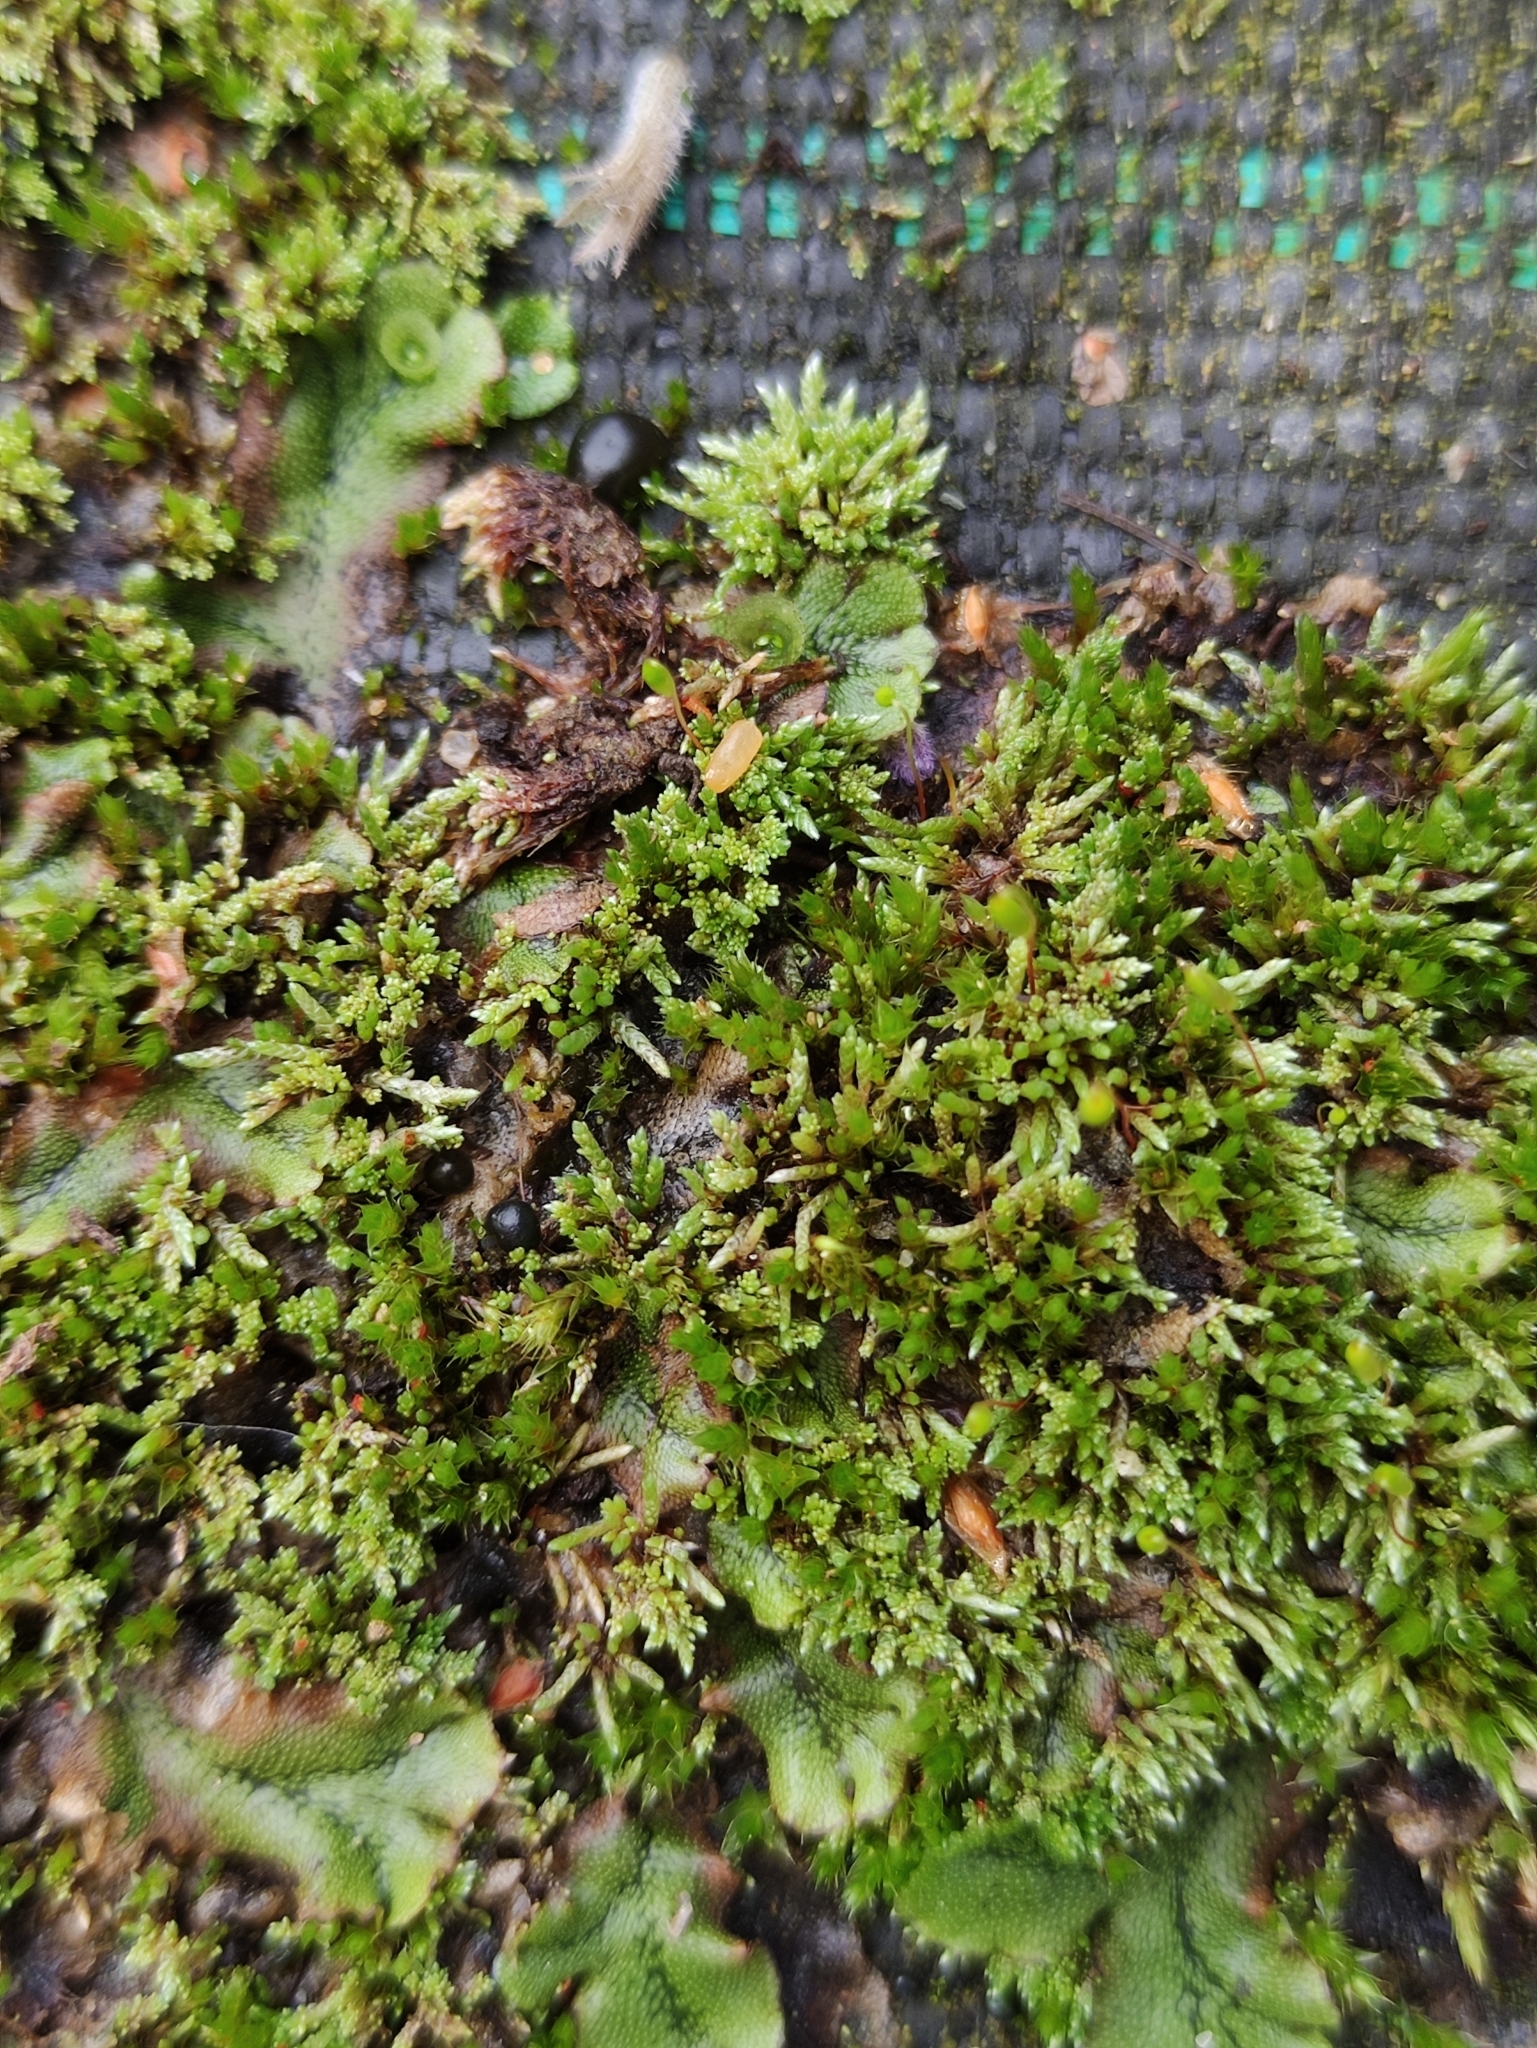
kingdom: Plantae
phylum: Bryophyta
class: Bryopsida
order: Bryales
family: Bryaceae
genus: Bryum
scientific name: Bryum argenteum
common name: Silver-moss
